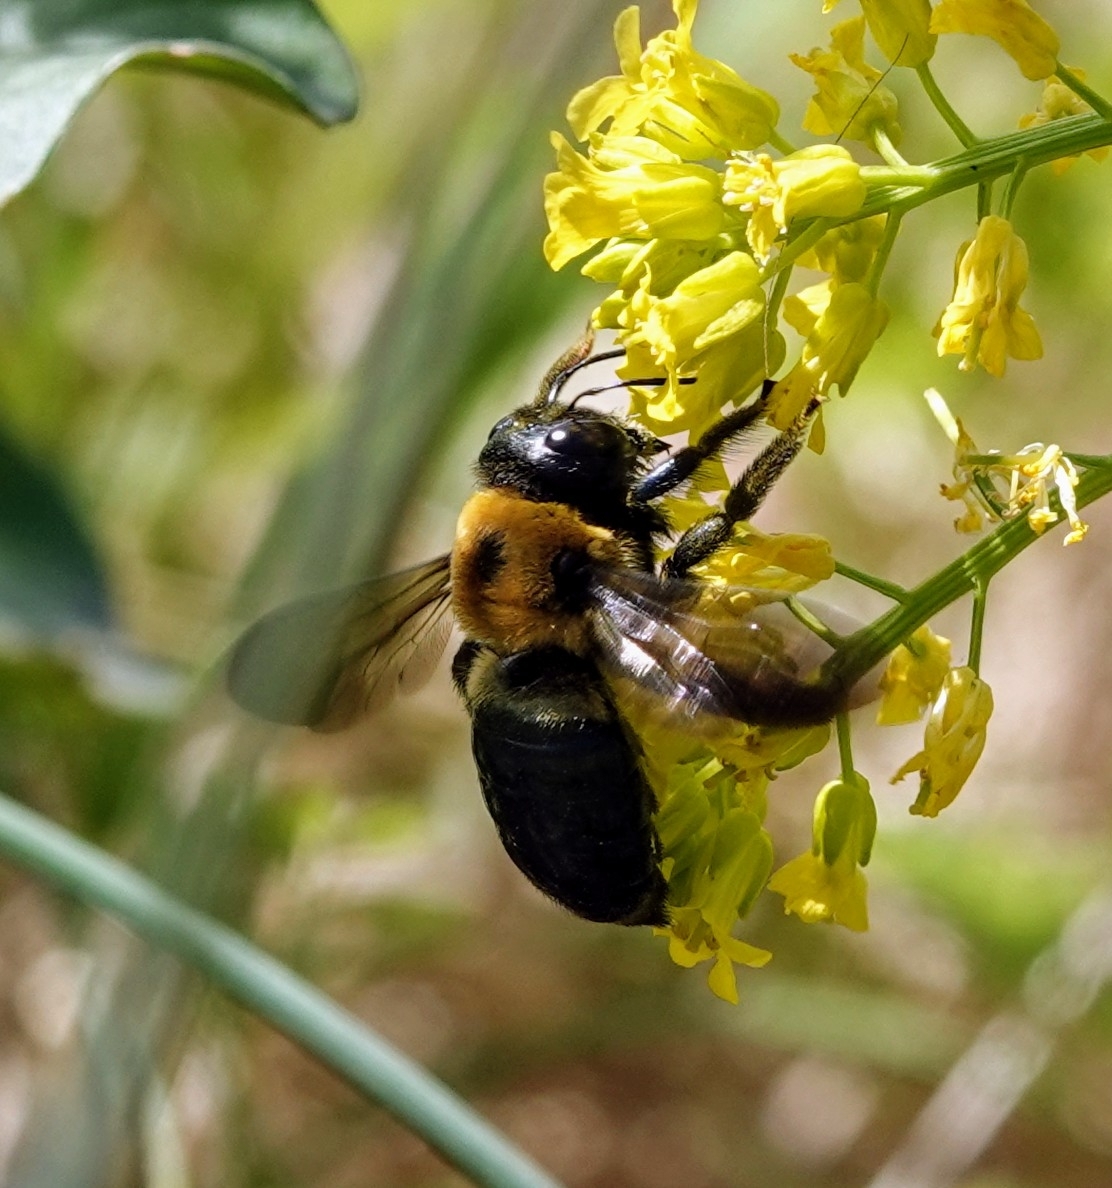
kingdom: Animalia
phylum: Arthropoda
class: Insecta
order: Hymenoptera
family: Apidae
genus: Xylocopa
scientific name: Xylocopa virginica
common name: Carpenter bee
